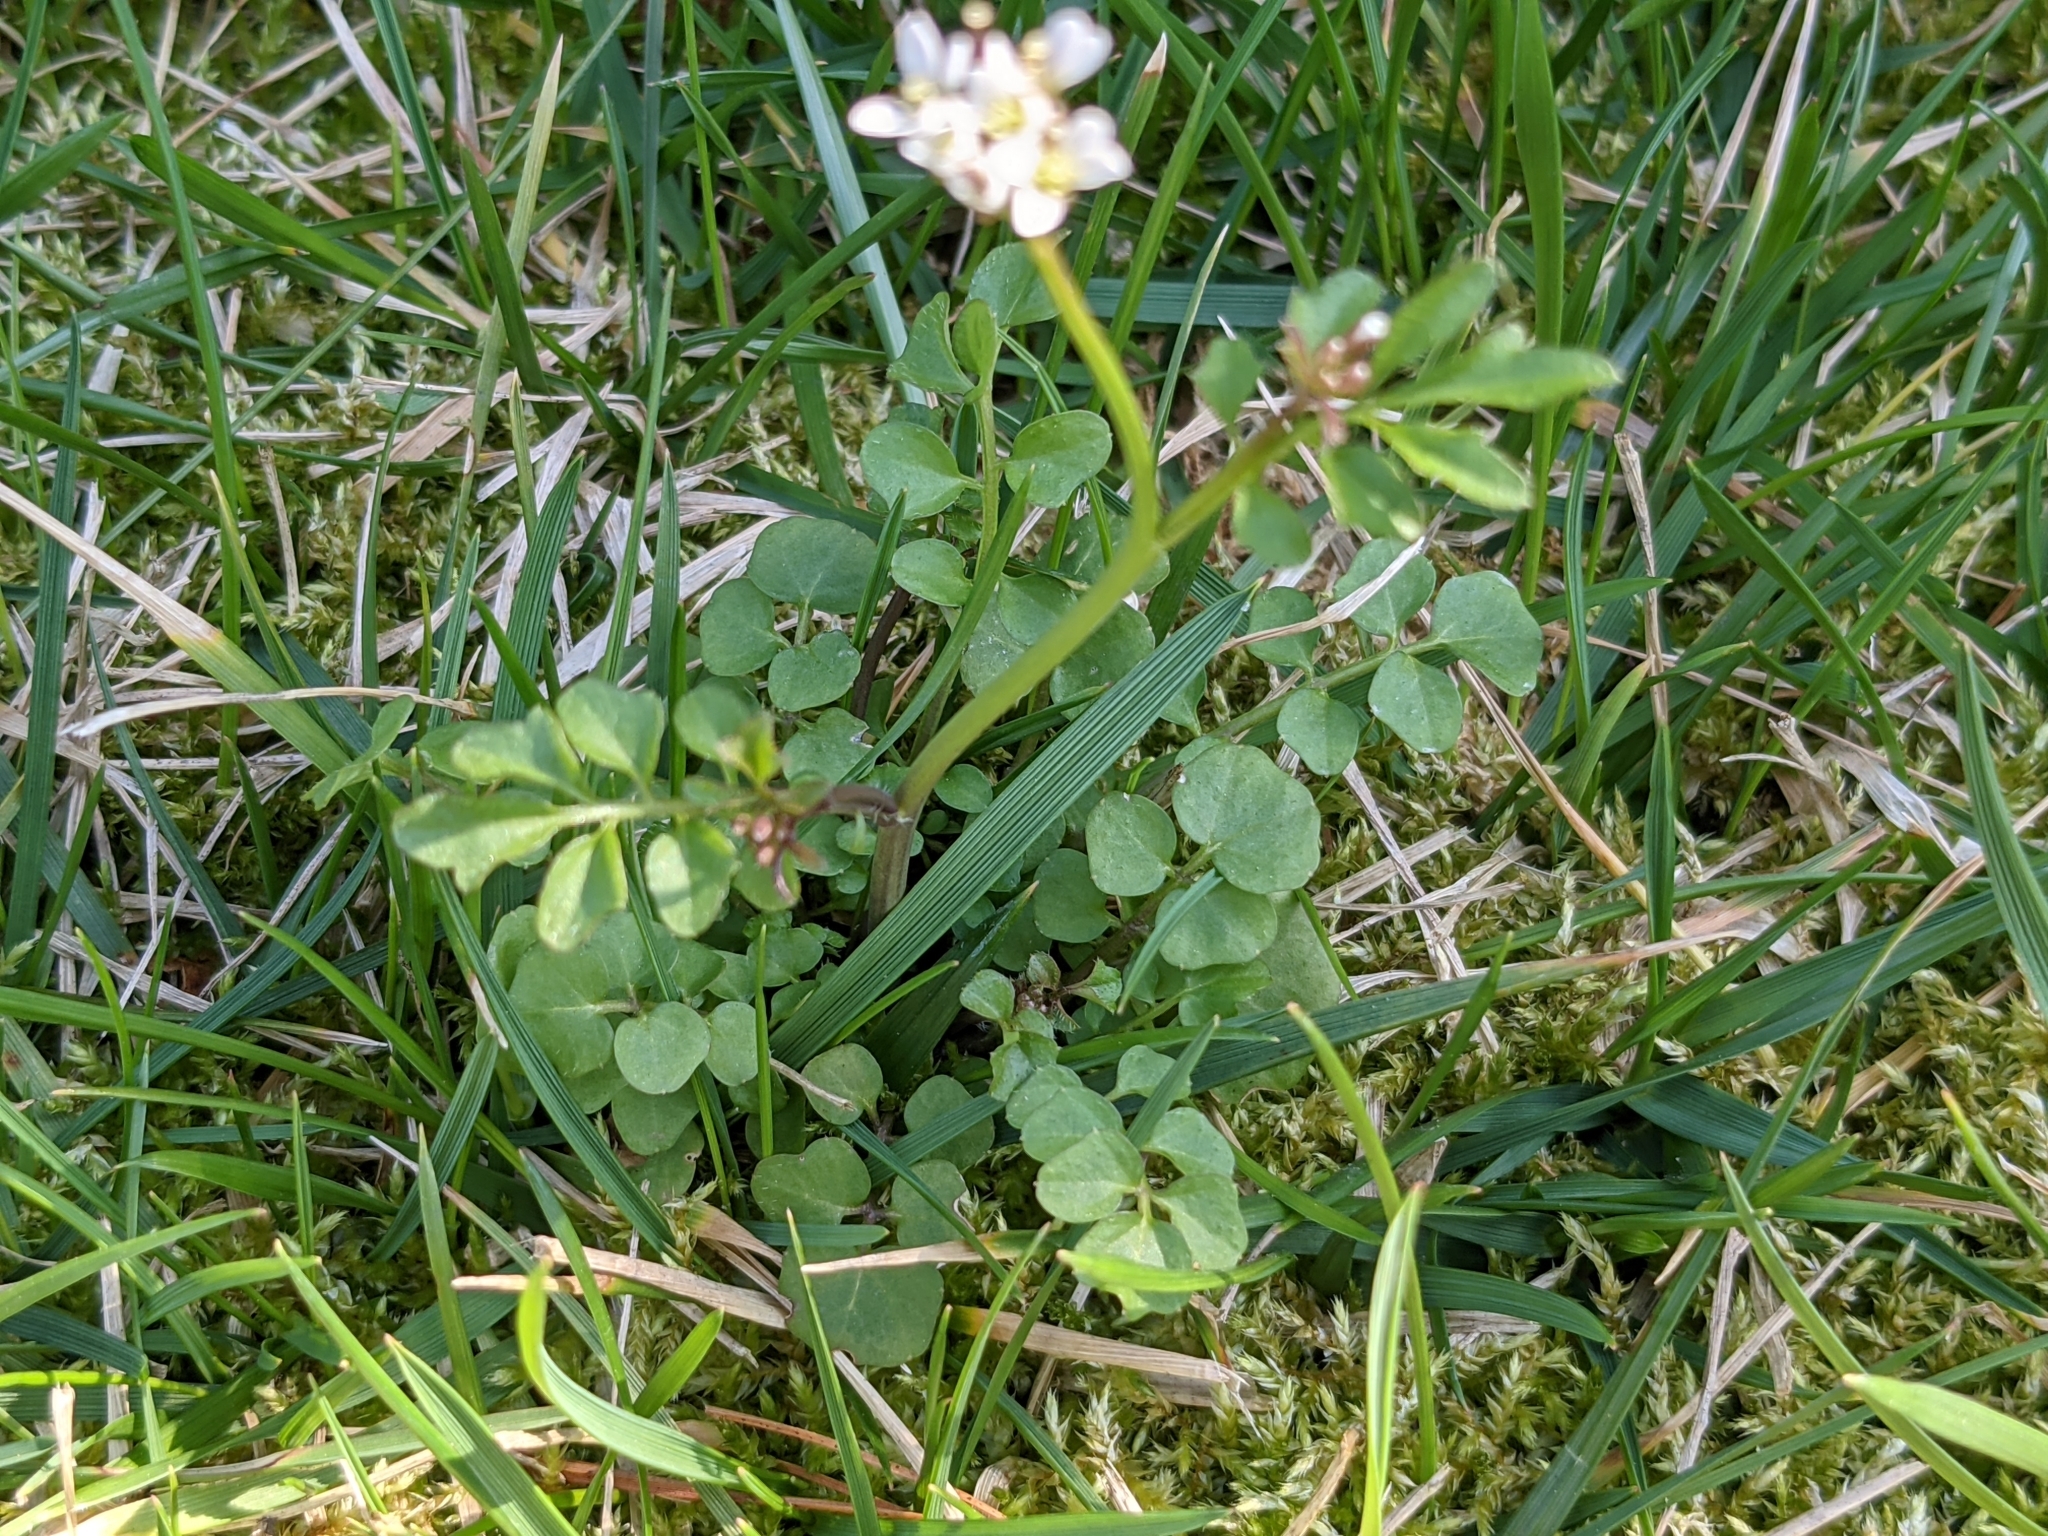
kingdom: Plantae
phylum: Tracheophyta
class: Magnoliopsida
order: Brassicales
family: Brassicaceae
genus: Cardamine
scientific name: Cardamine hirsuta
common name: Hairy bittercress
